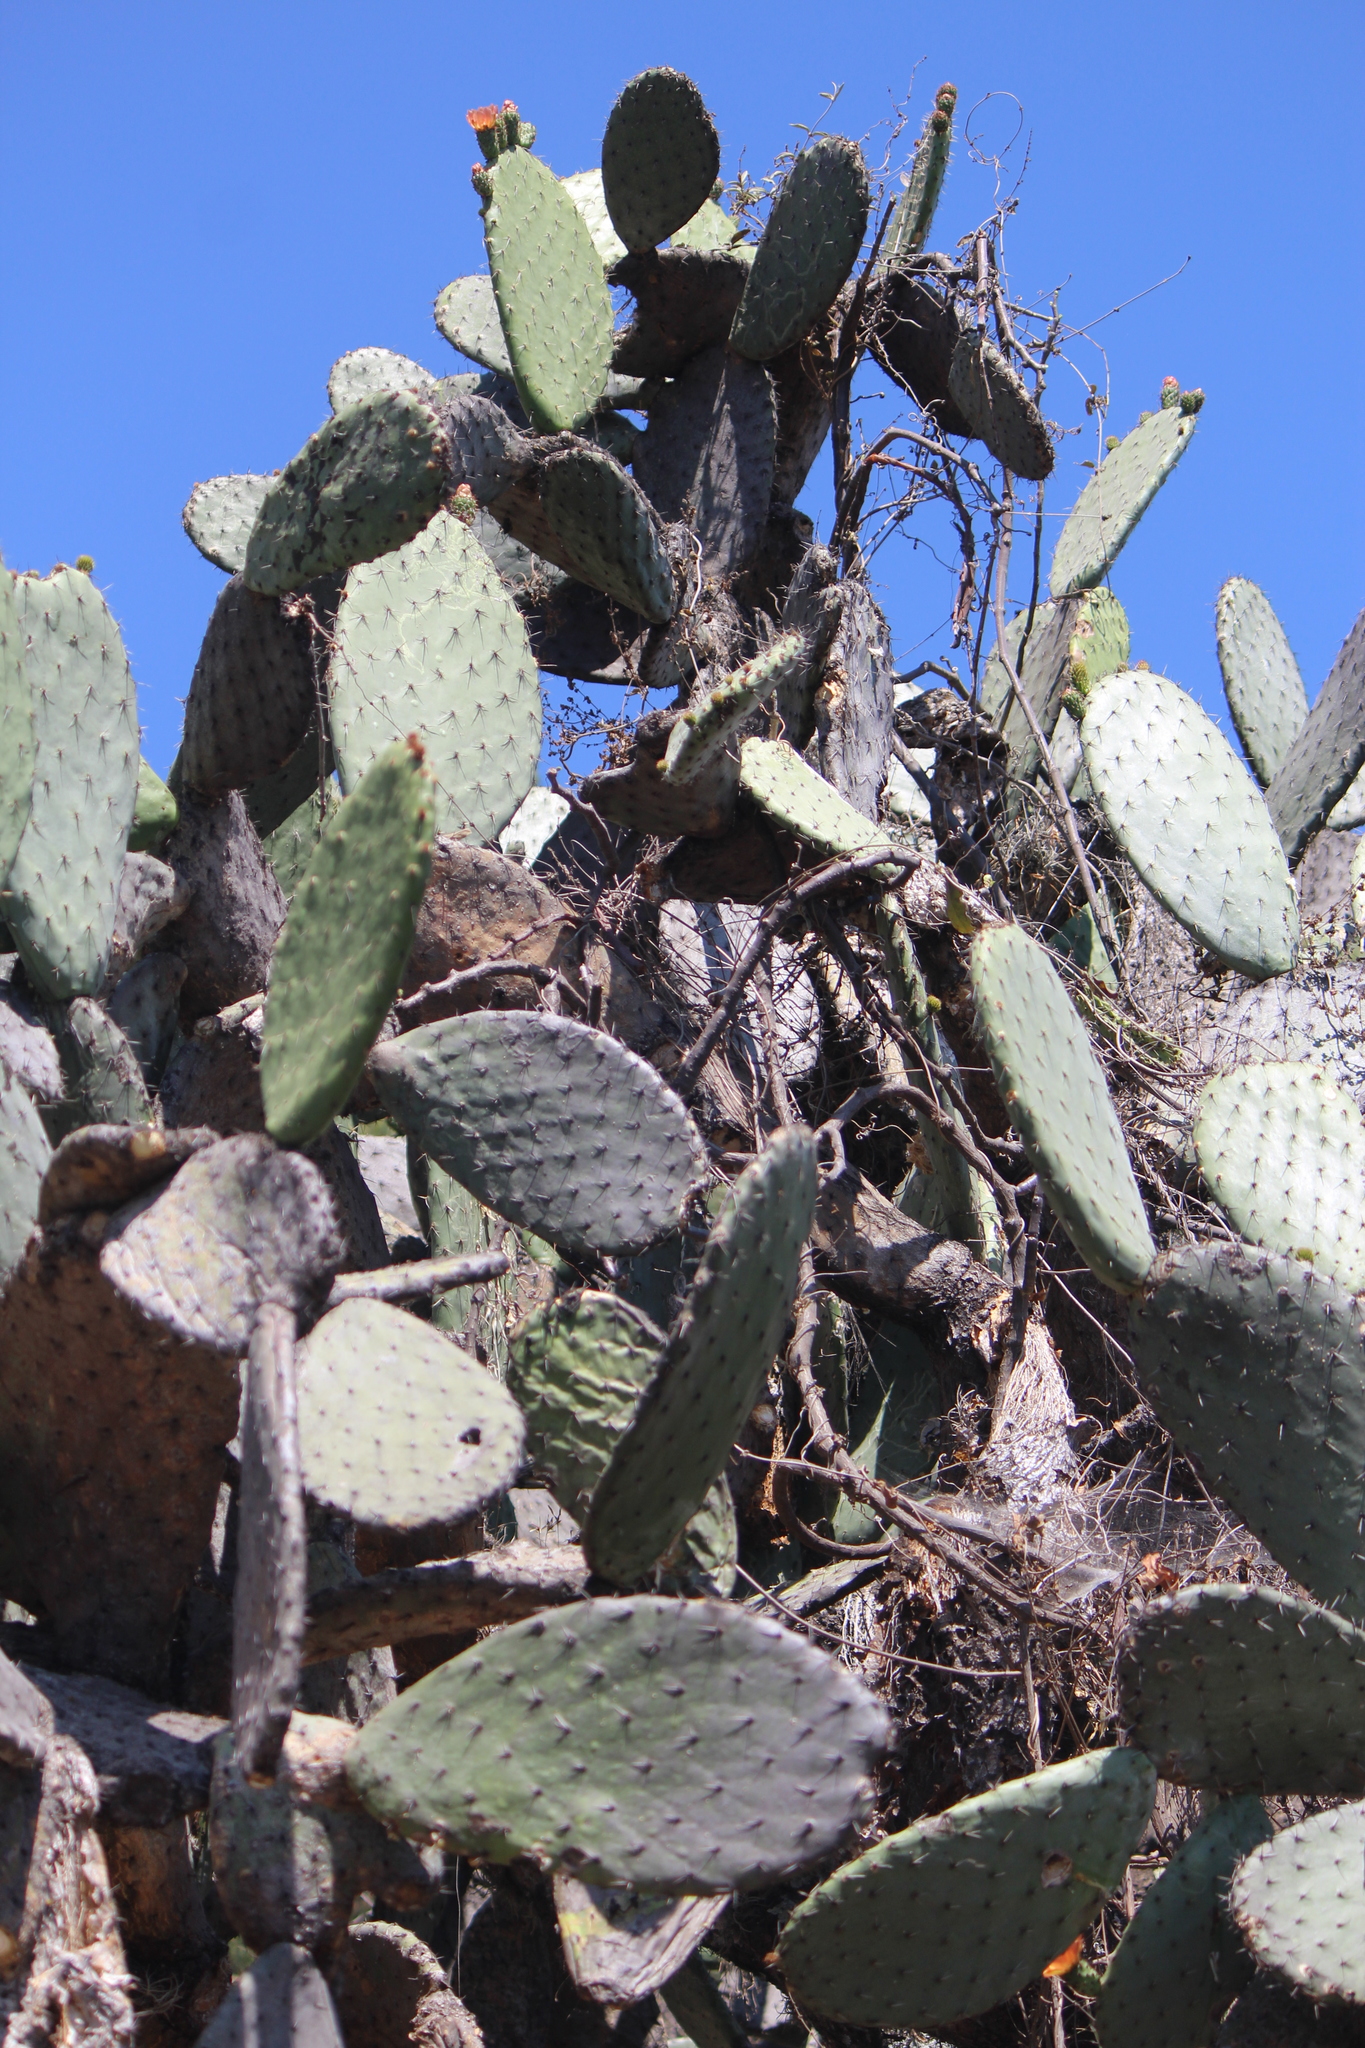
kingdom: Plantae
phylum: Tracheophyta
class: Magnoliopsida
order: Caryophyllales
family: Cactaceae
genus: Opuntia
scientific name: Opuntia lasiacantha
